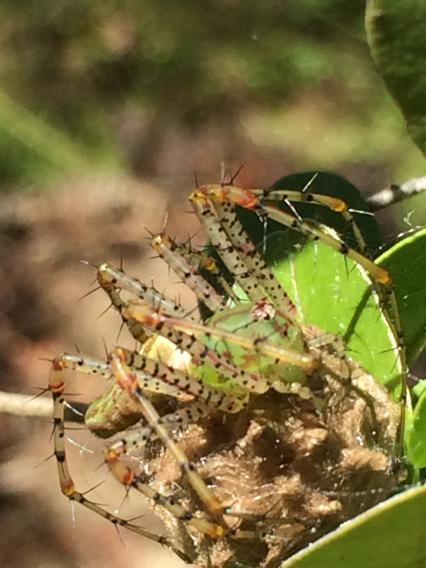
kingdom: Animalia
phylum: Arthropoda
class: Arachnida
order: Araneae
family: Oxyopidae
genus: Peucetia
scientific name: Peucetia viridans
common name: Lynx spiders
